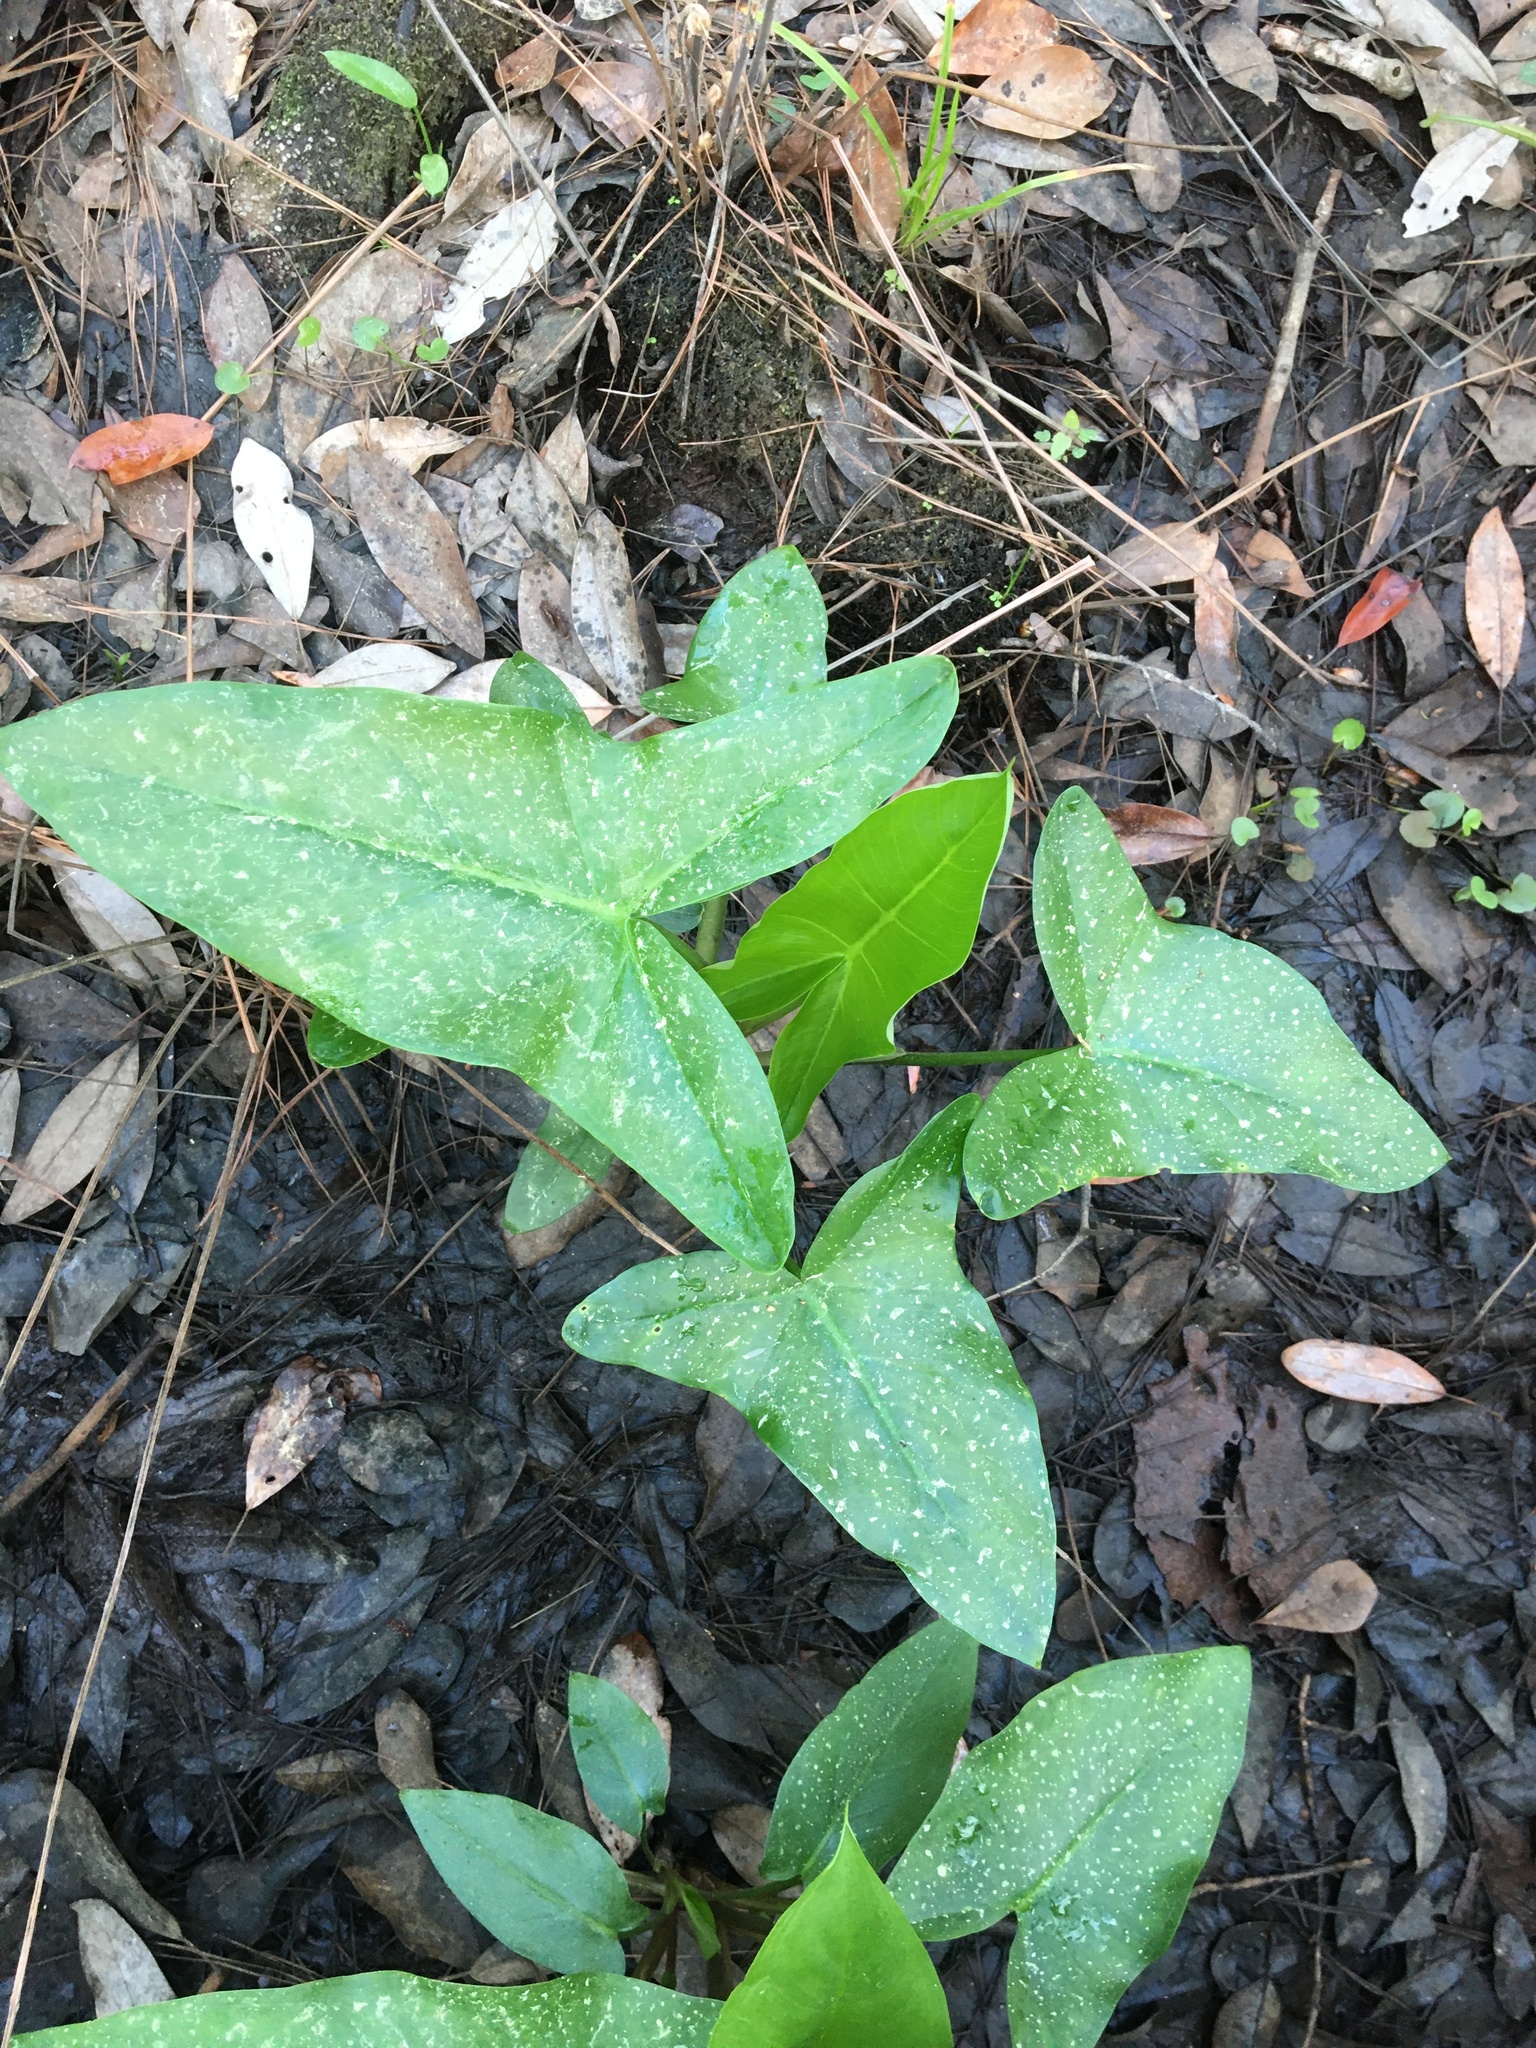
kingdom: Plantae
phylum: Tracheophyta
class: Liliopsida
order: Alismatales
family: Araceae
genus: Peltandra
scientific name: Peltandra virginica
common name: Arrow arum
